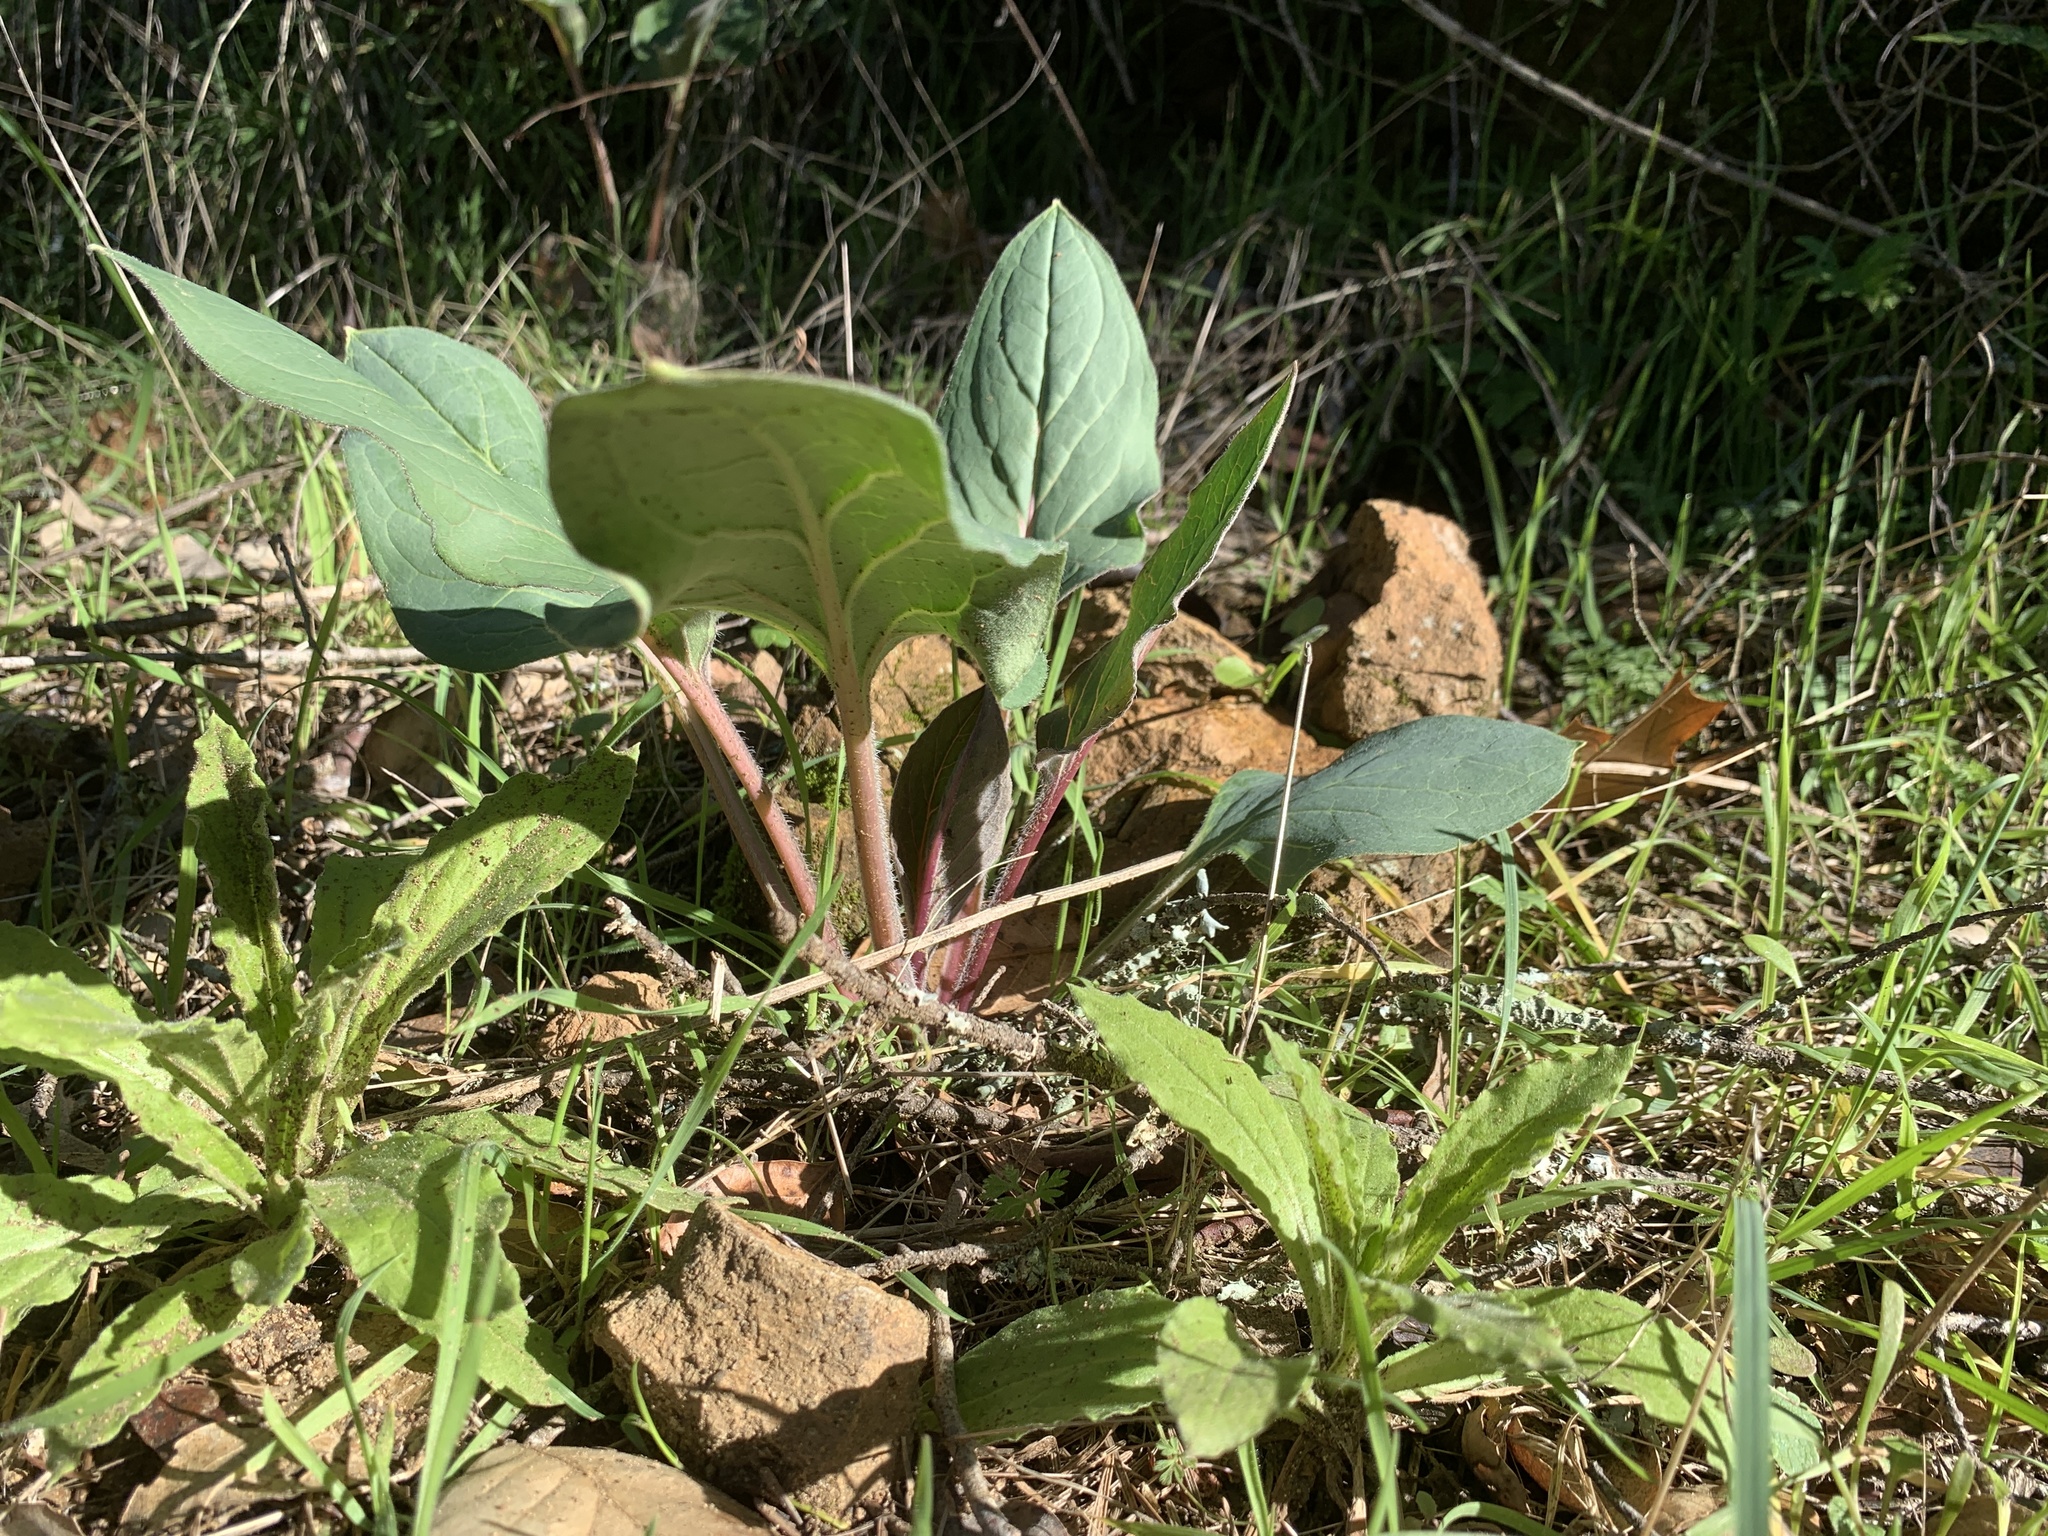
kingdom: Plantae
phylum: Tracheophyta
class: Magnoliopsida
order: Boraginales
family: Boraginaceae
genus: Adelinia
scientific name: Adelinia grande
